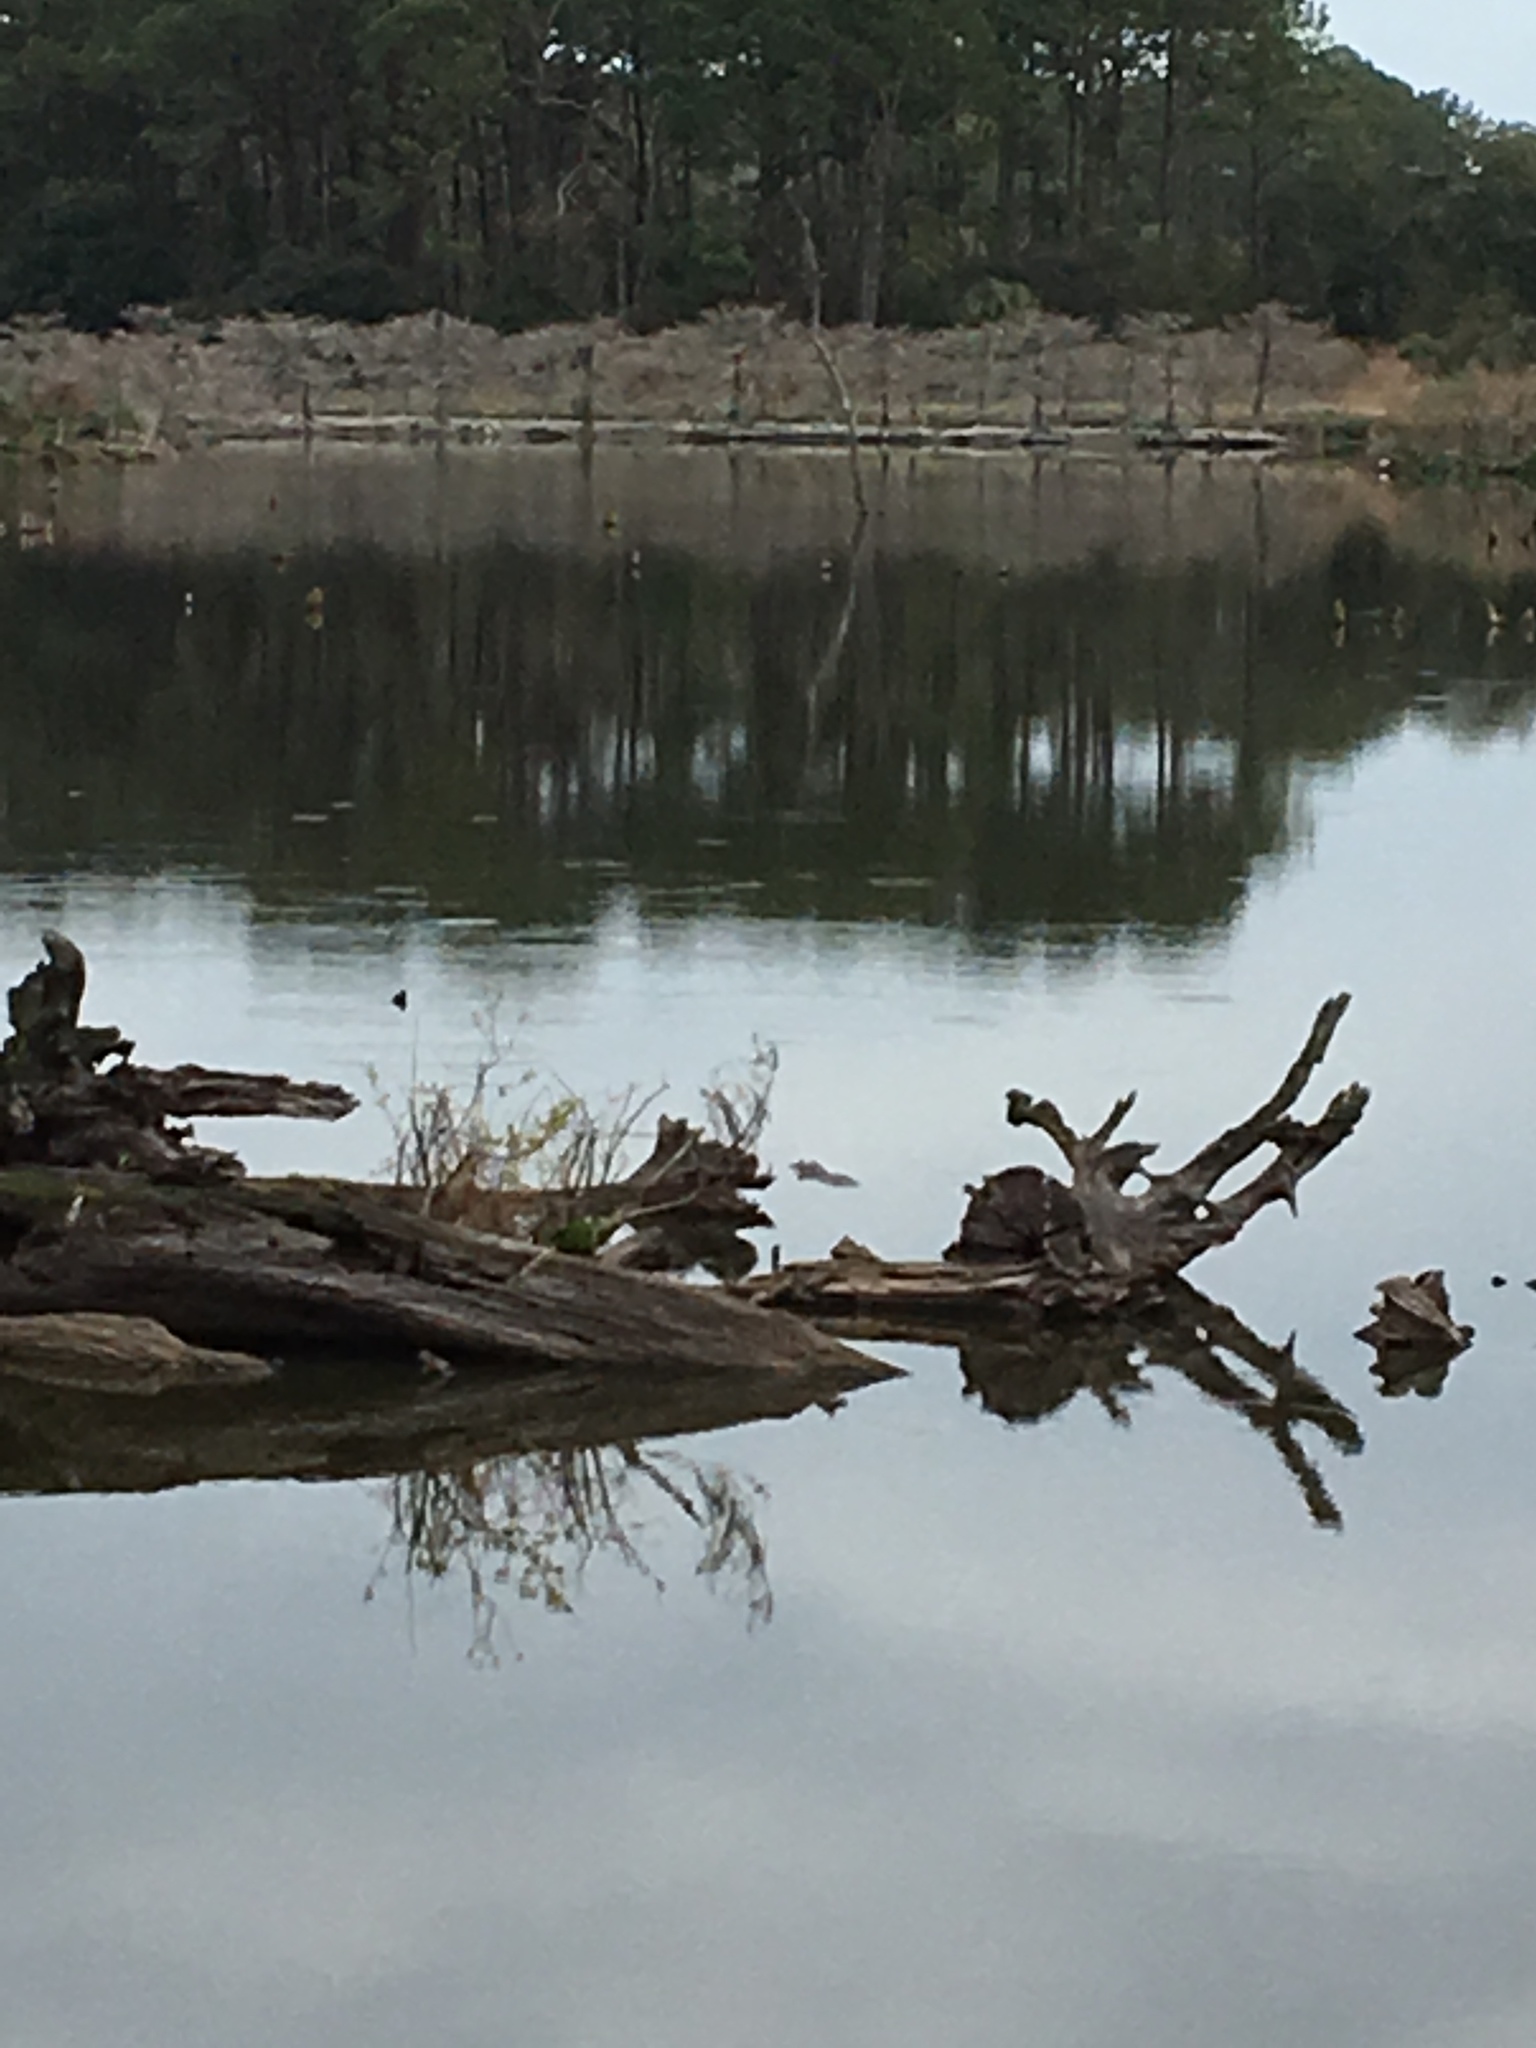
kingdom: Animalia
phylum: Chordata
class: Crocodylia
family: Alligatoridae
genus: Alligator
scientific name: Alligator mississippiensis
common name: American alligator
